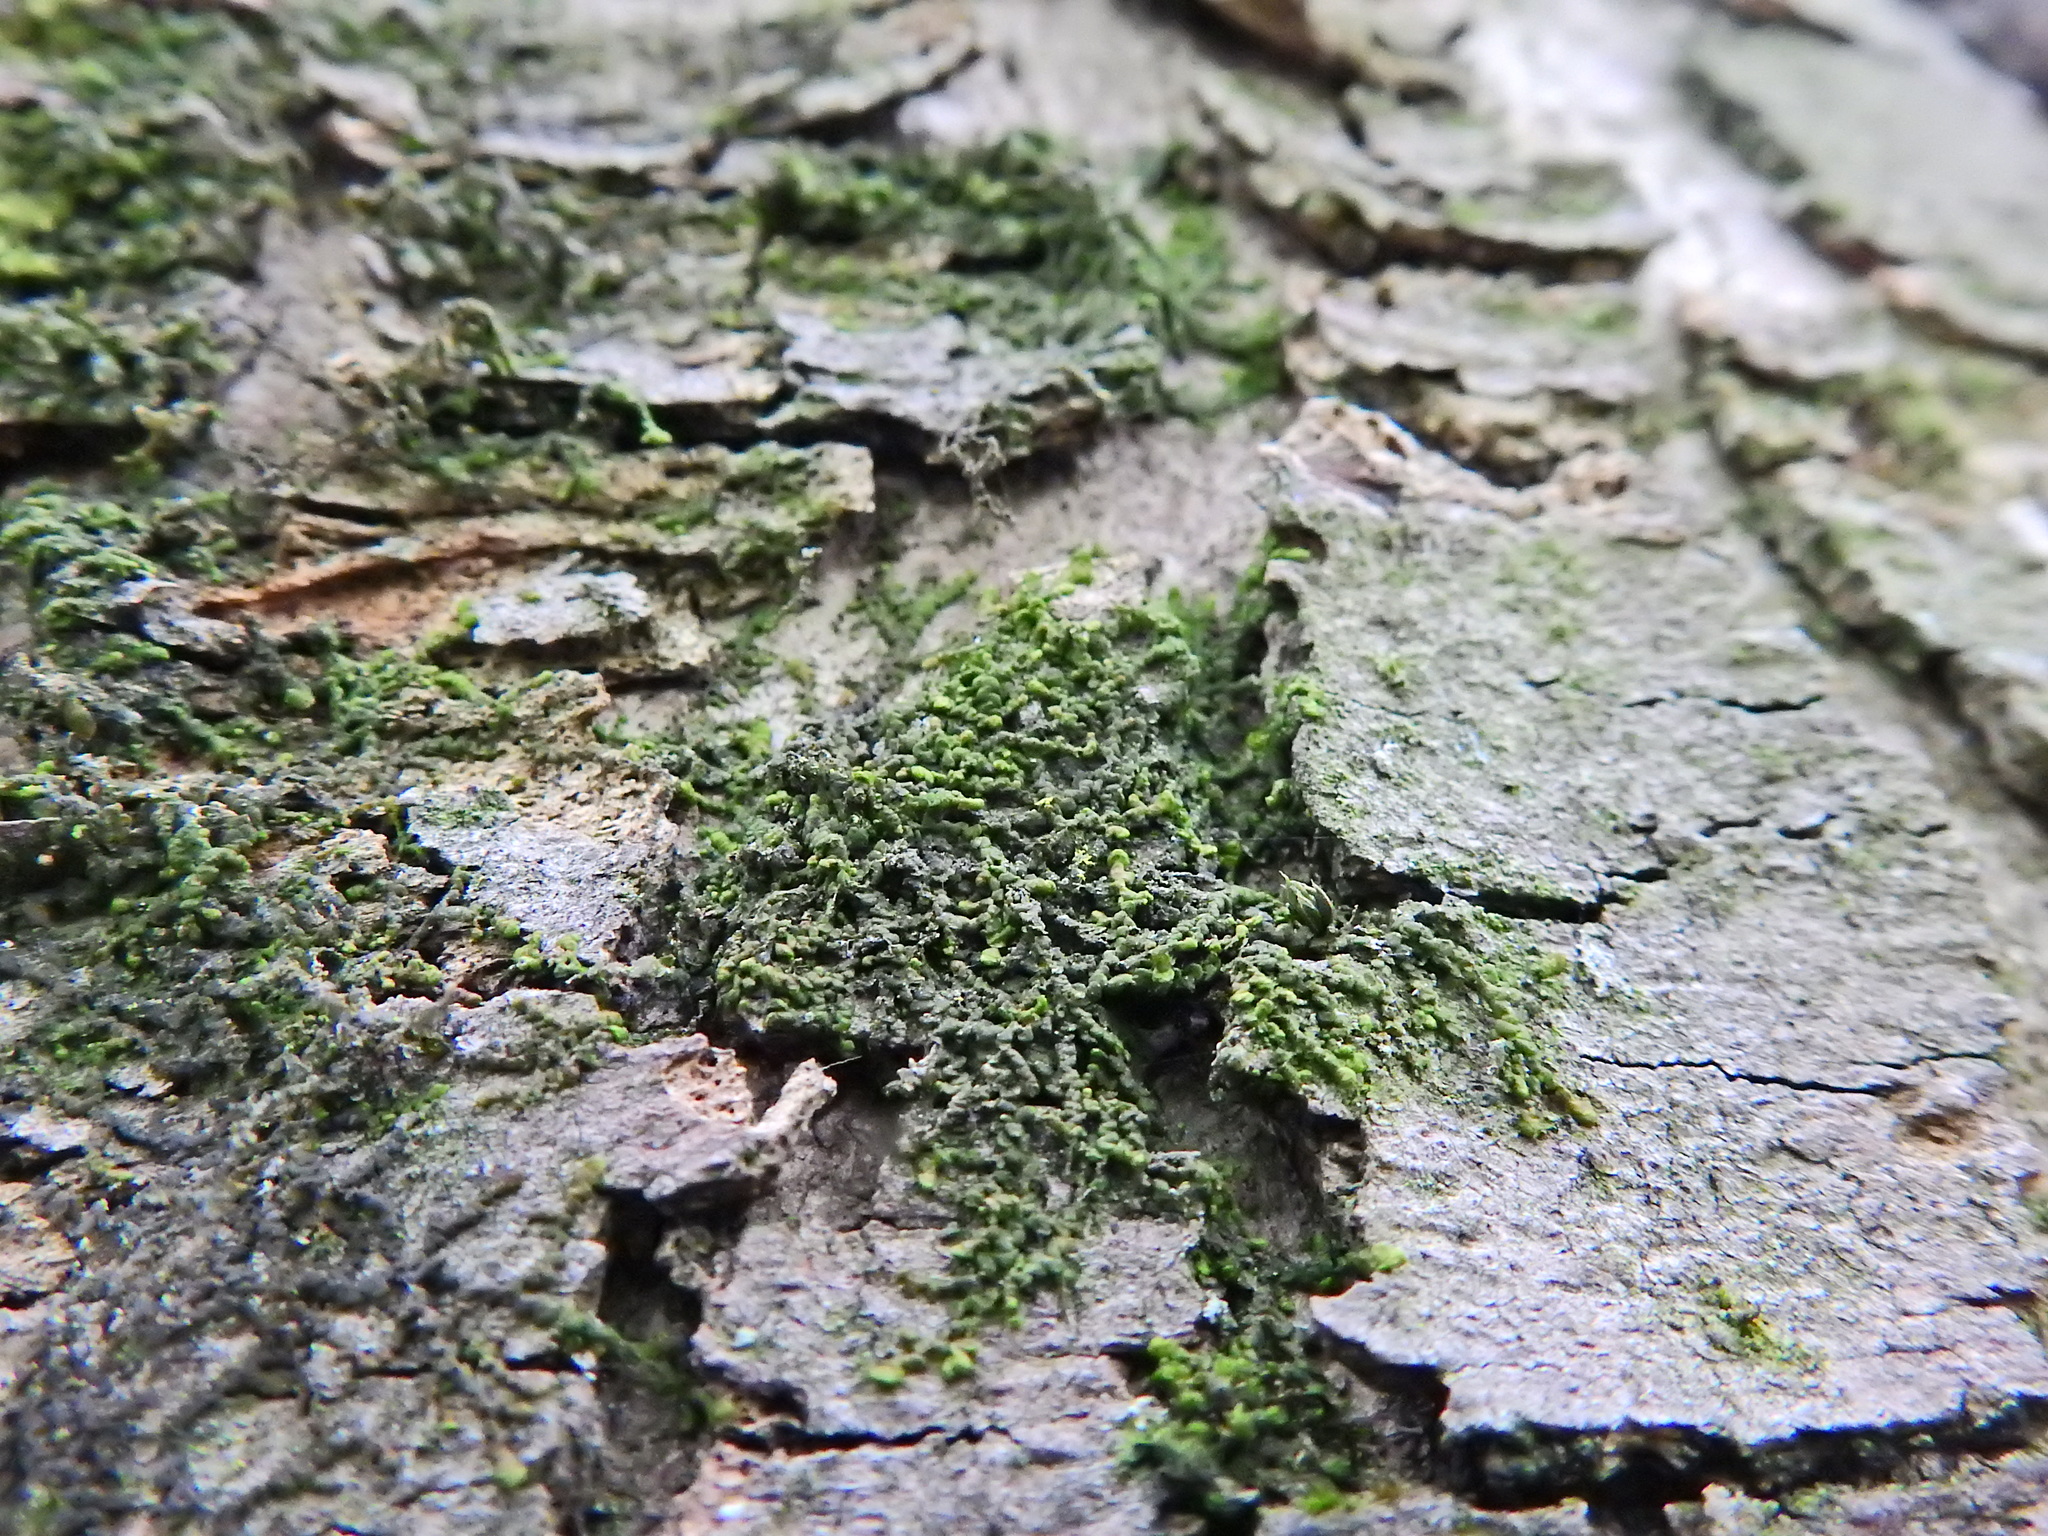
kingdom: Plantae
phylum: Marchantiophyta
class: Jungermanniopsida
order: Porellales
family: Frullaniaceae
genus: Frullania
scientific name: Frullania dilatata
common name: Dilated scalewort
